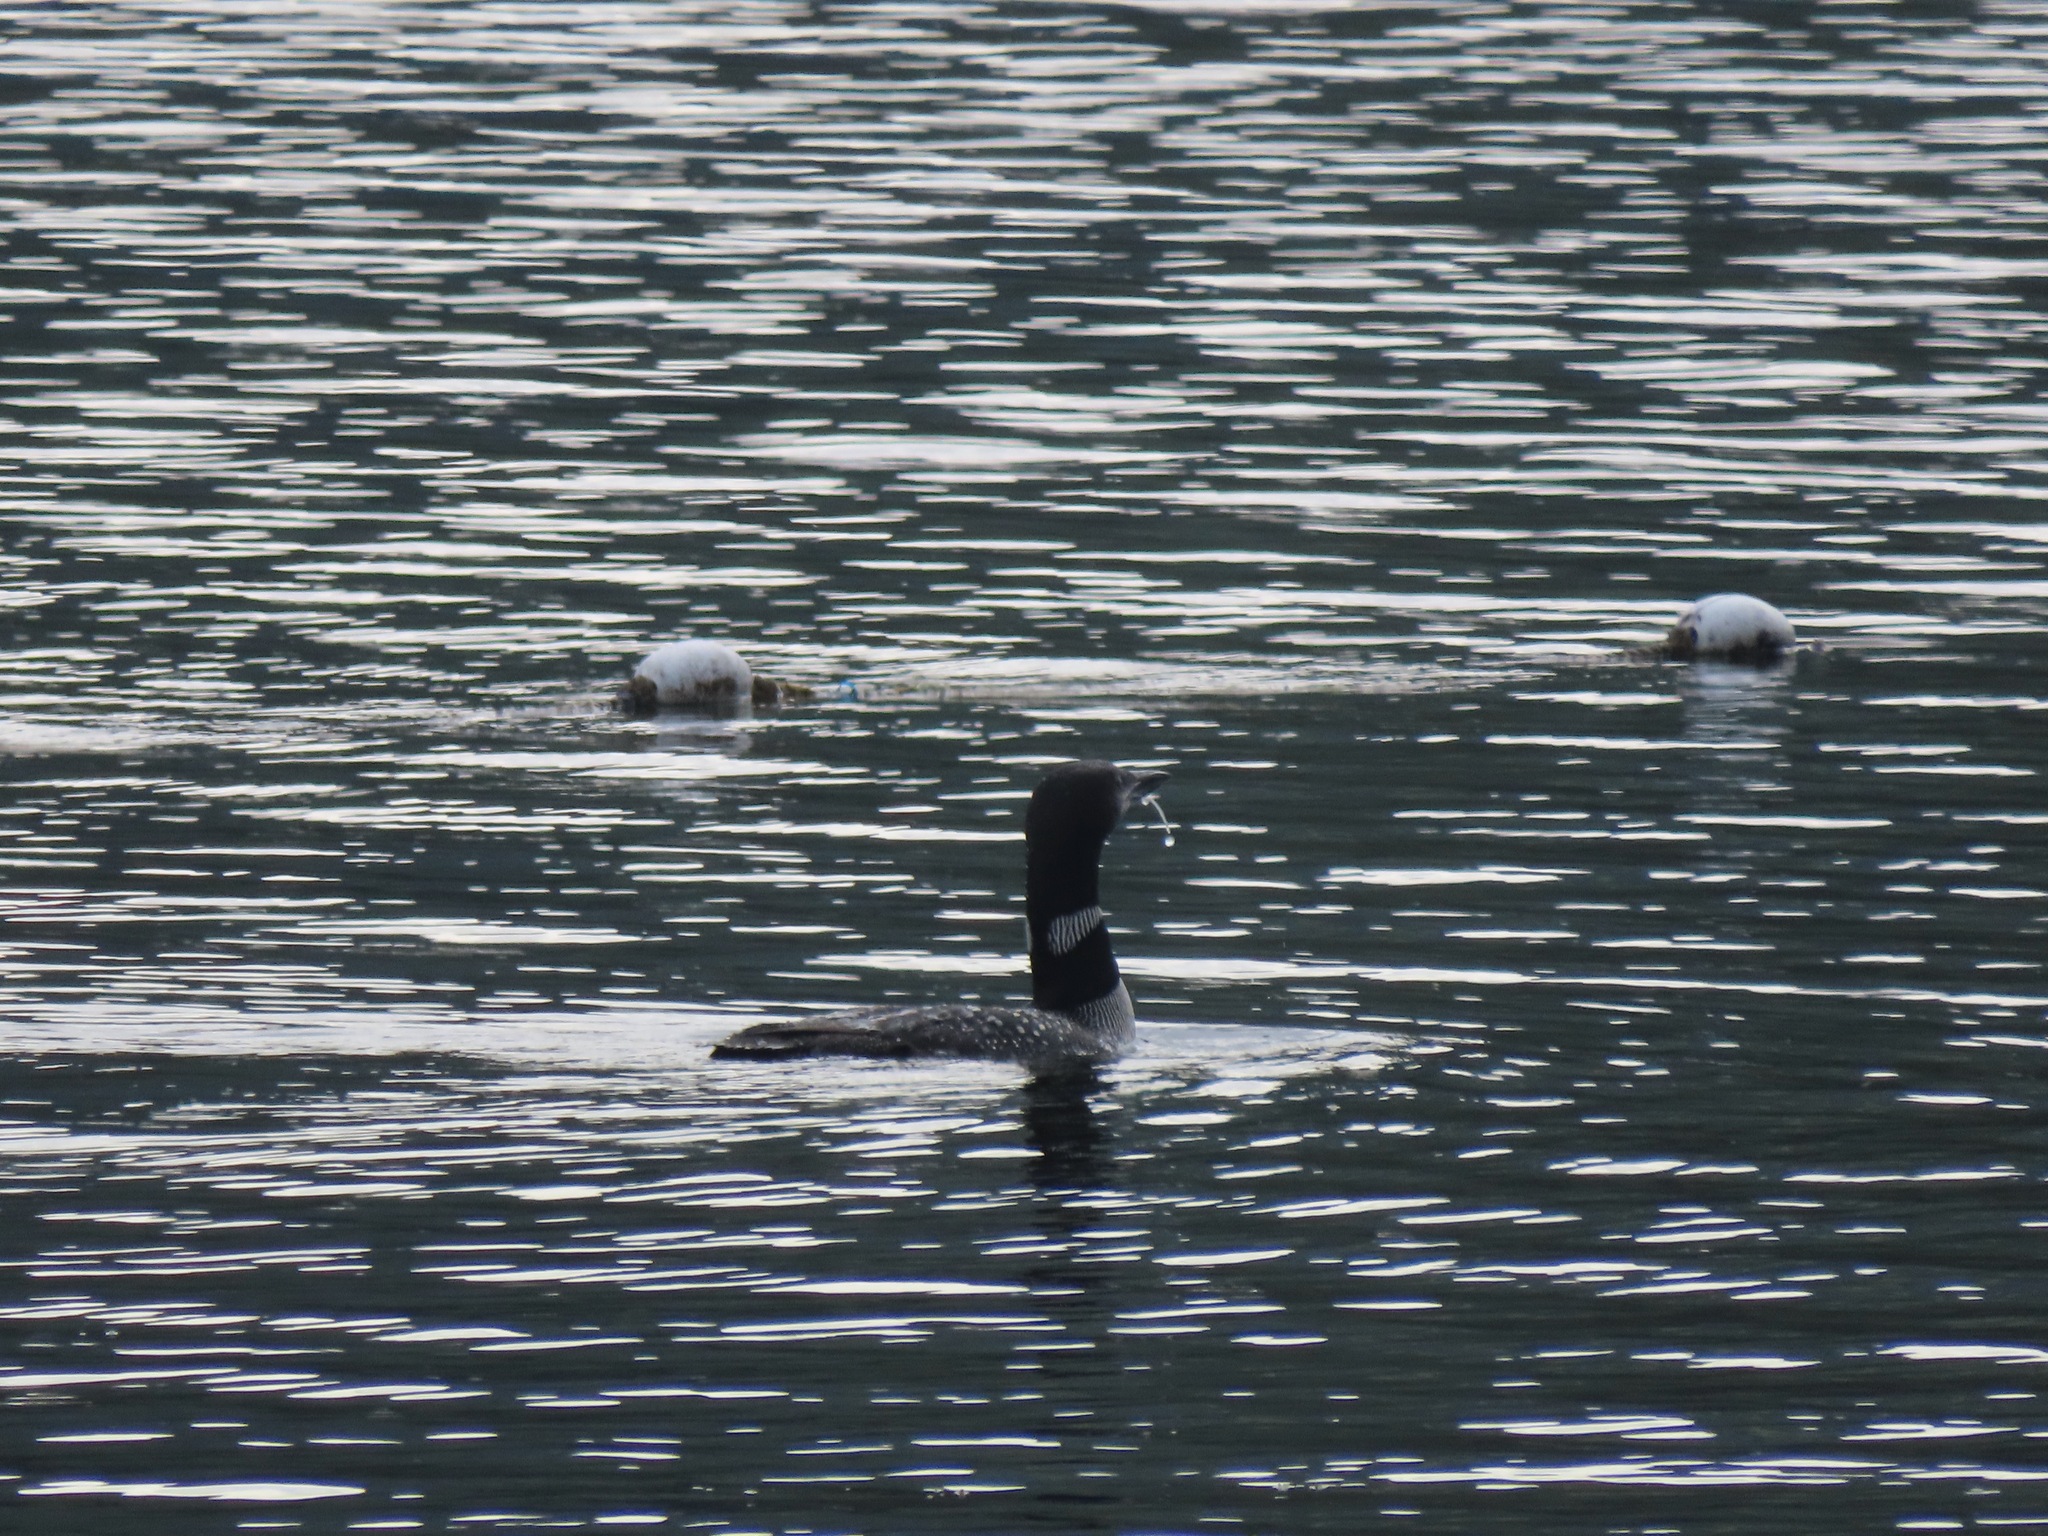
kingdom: Animalia
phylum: Chordata
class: Aves
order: Gaviiformes
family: Gaviidae
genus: Gavia
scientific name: Gavia immer
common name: Common loon
